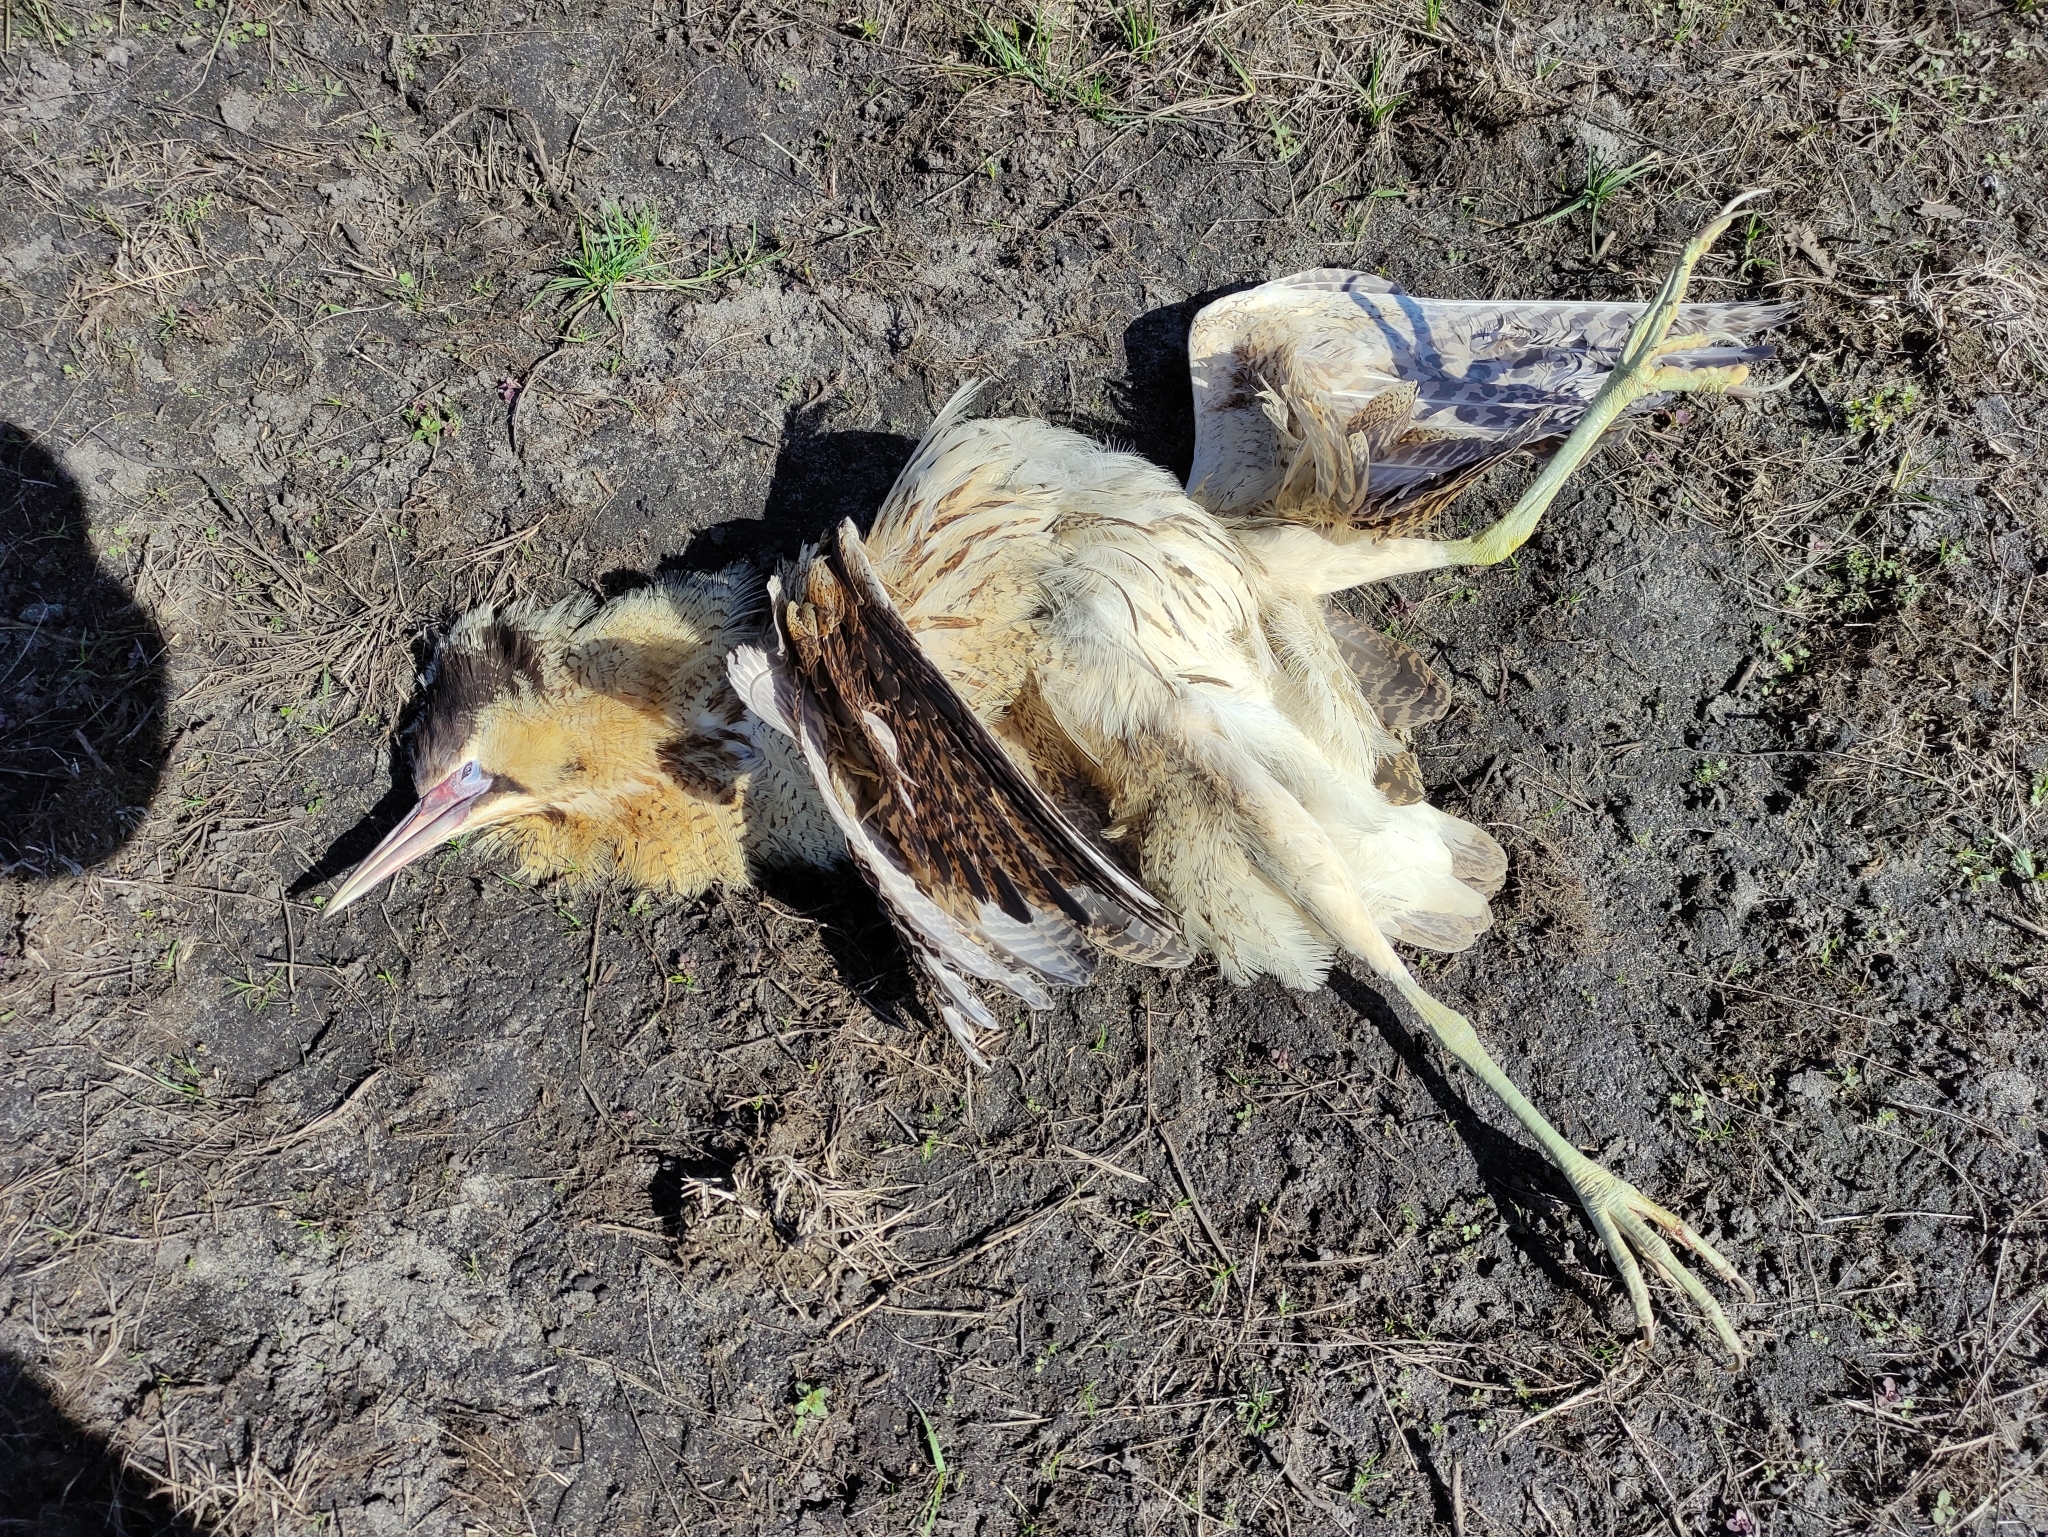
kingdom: Animalia
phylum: Chordata
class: Aves
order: Pelecaniformes
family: Ardeidae
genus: Botaurus
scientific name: Botaurus stellaris
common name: Eurasian bittern
